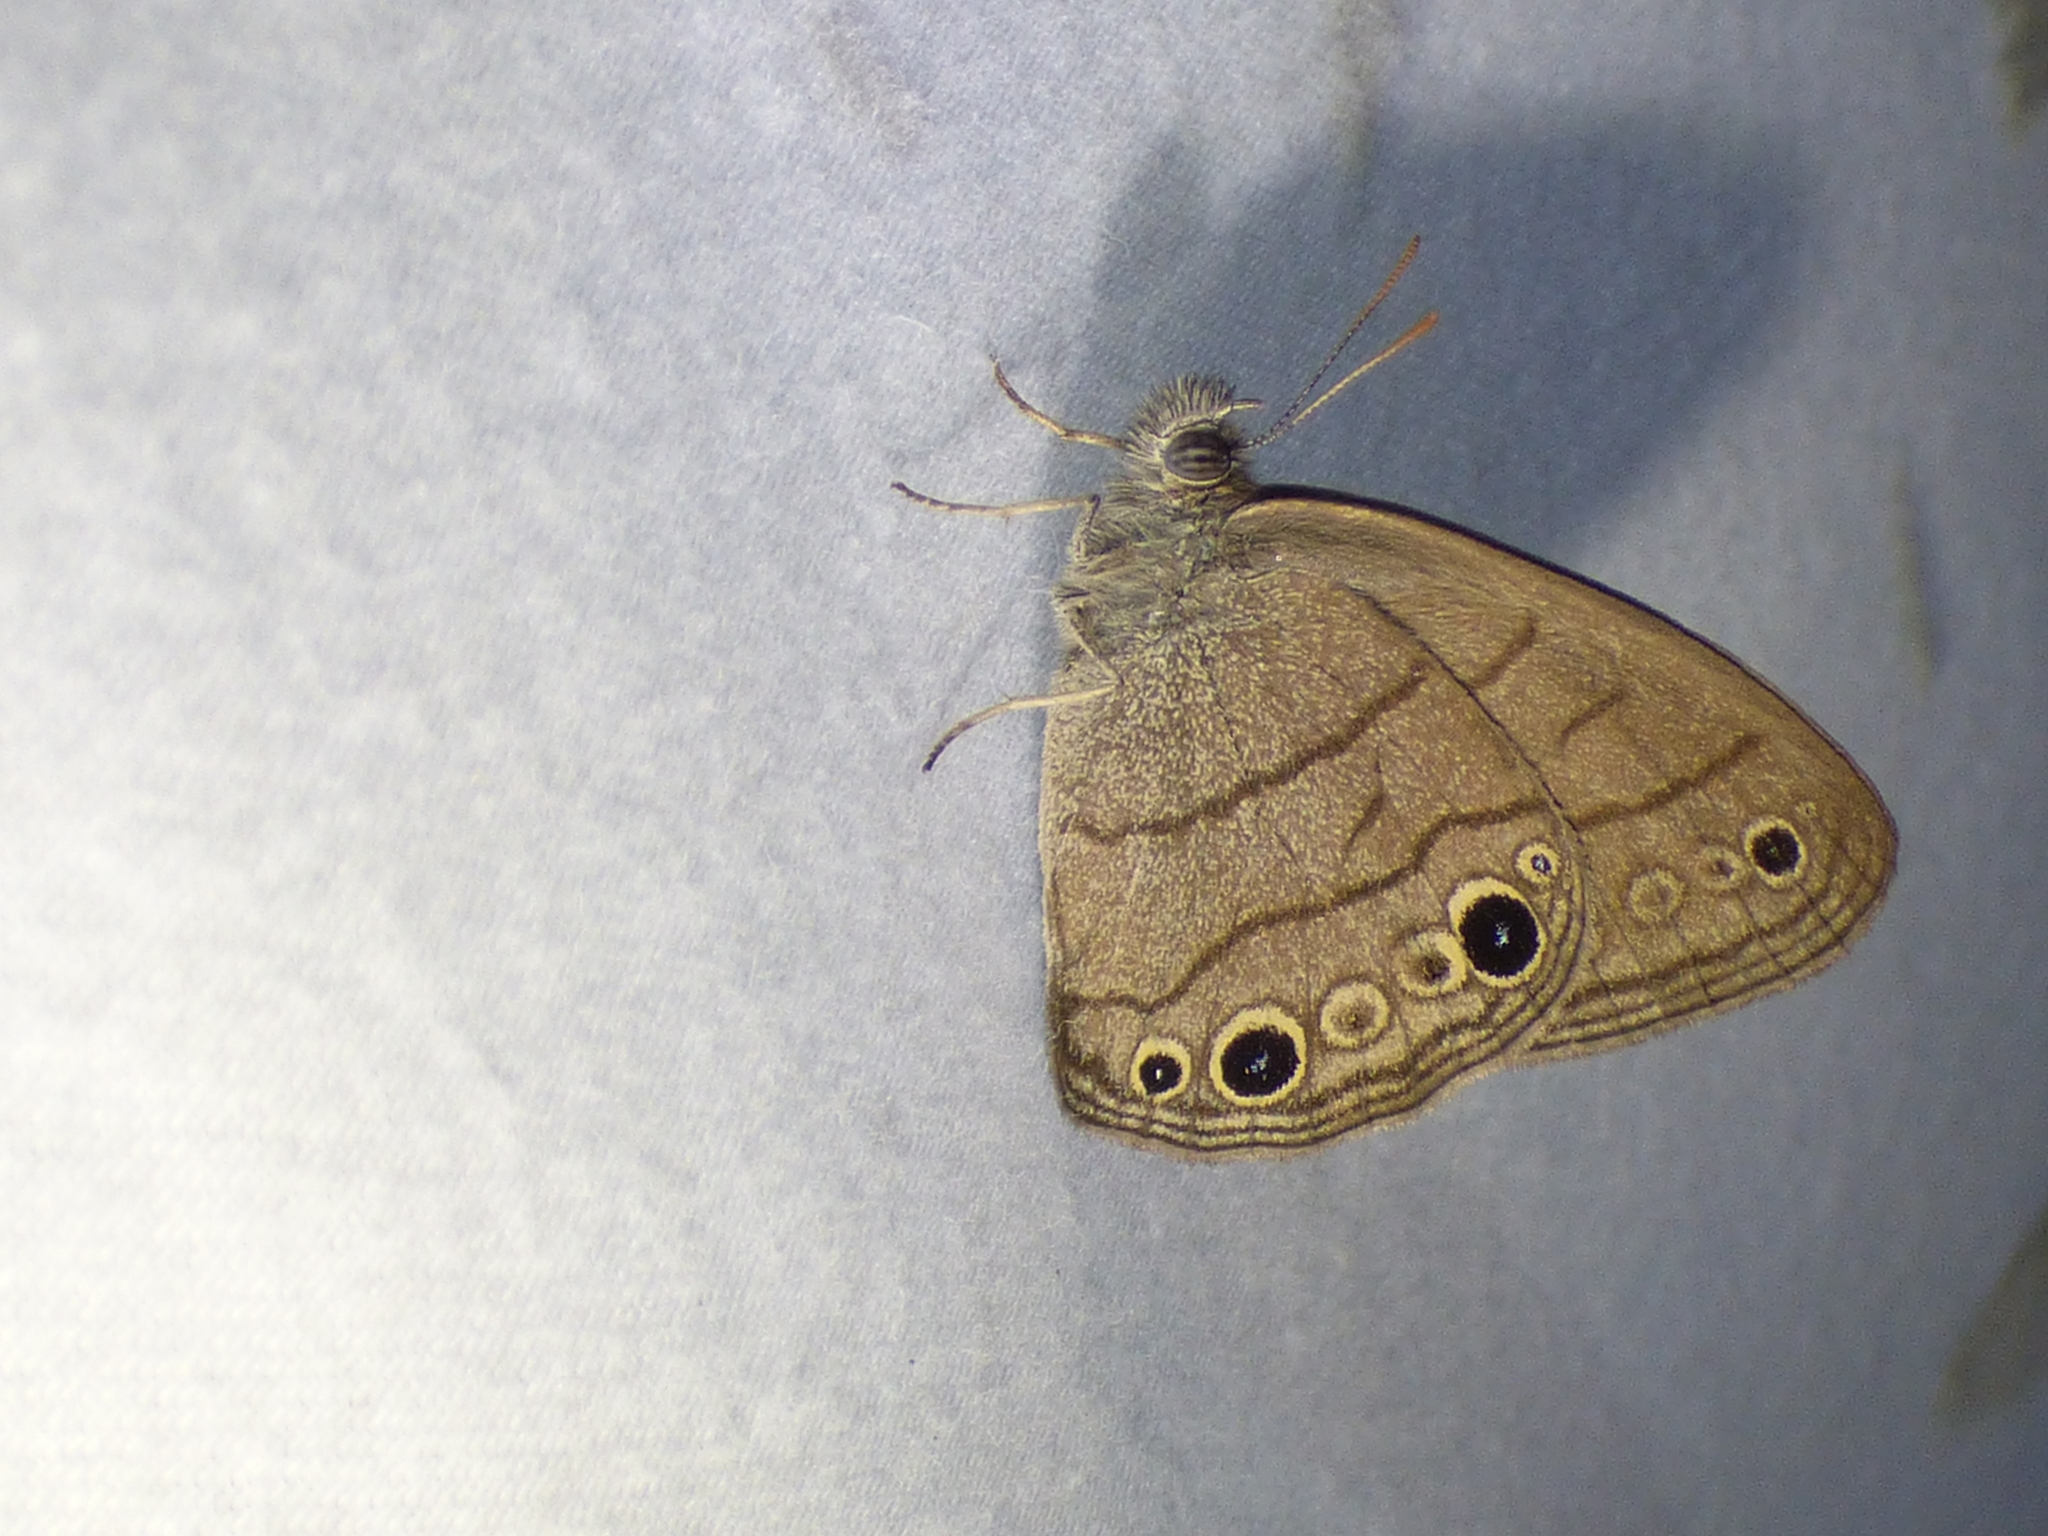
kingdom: Animalia
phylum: Arthropoda
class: Insecta
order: Lepidoptera
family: Nymphalidae
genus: Hermeuptychia
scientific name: Hermeuptychia hermes
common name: Hermes satyr
